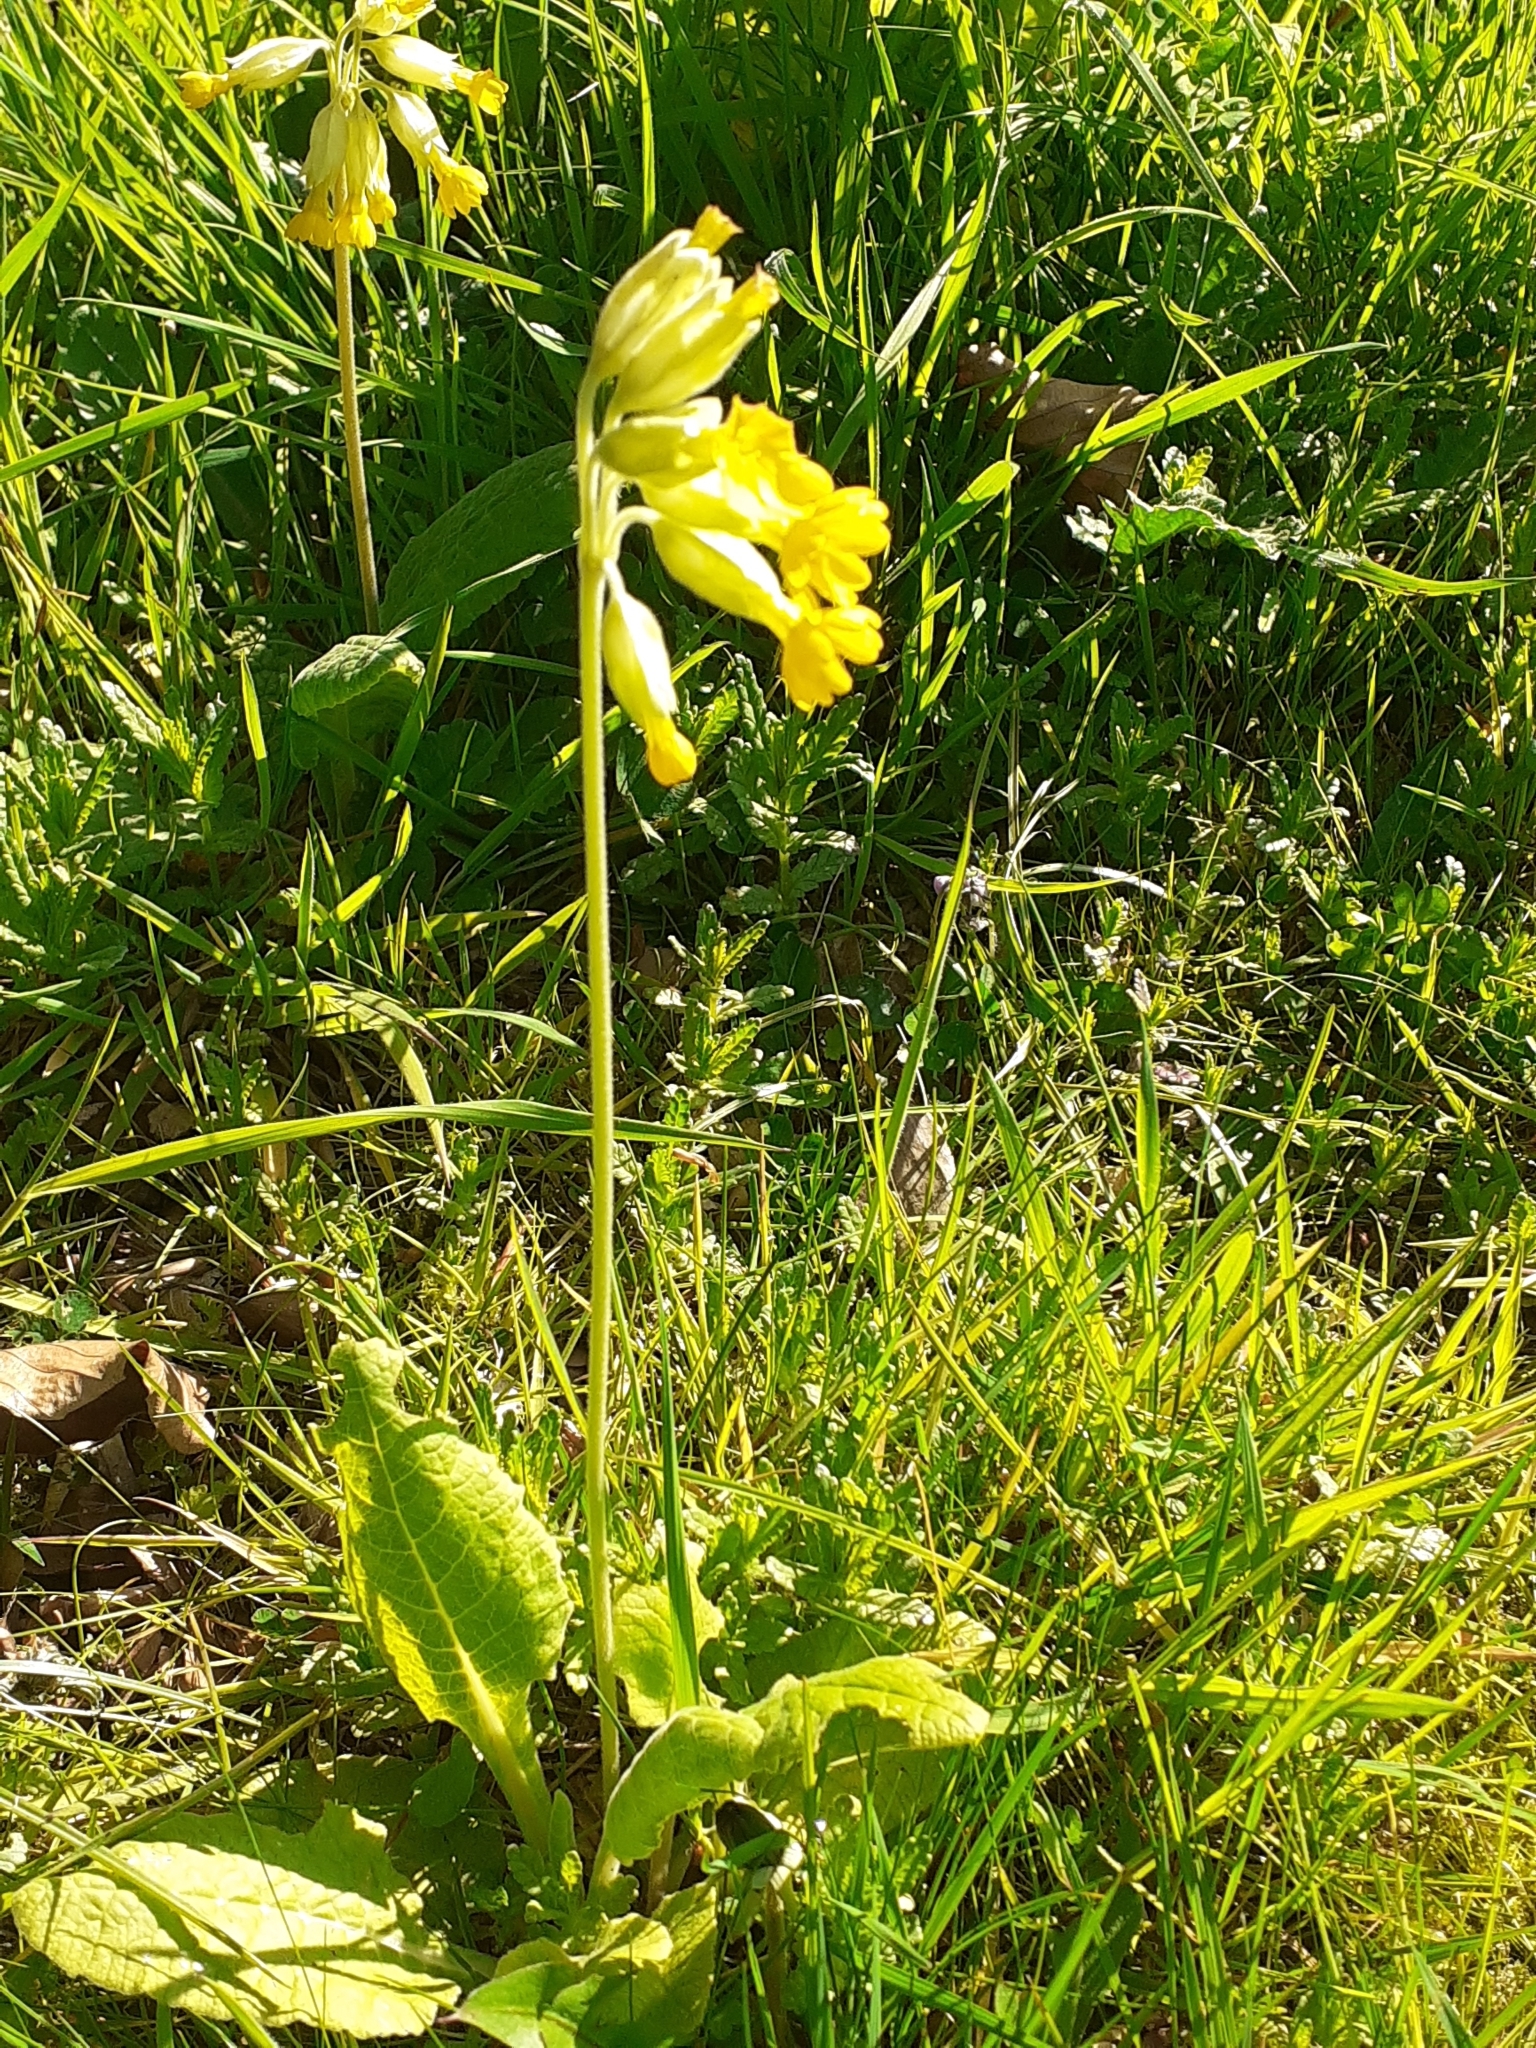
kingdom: Plantae
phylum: Tracheophyta
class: Magnoliopsida
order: Ericales
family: Primulaceae
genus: Primula
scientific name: Primula veris
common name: Cowslip
